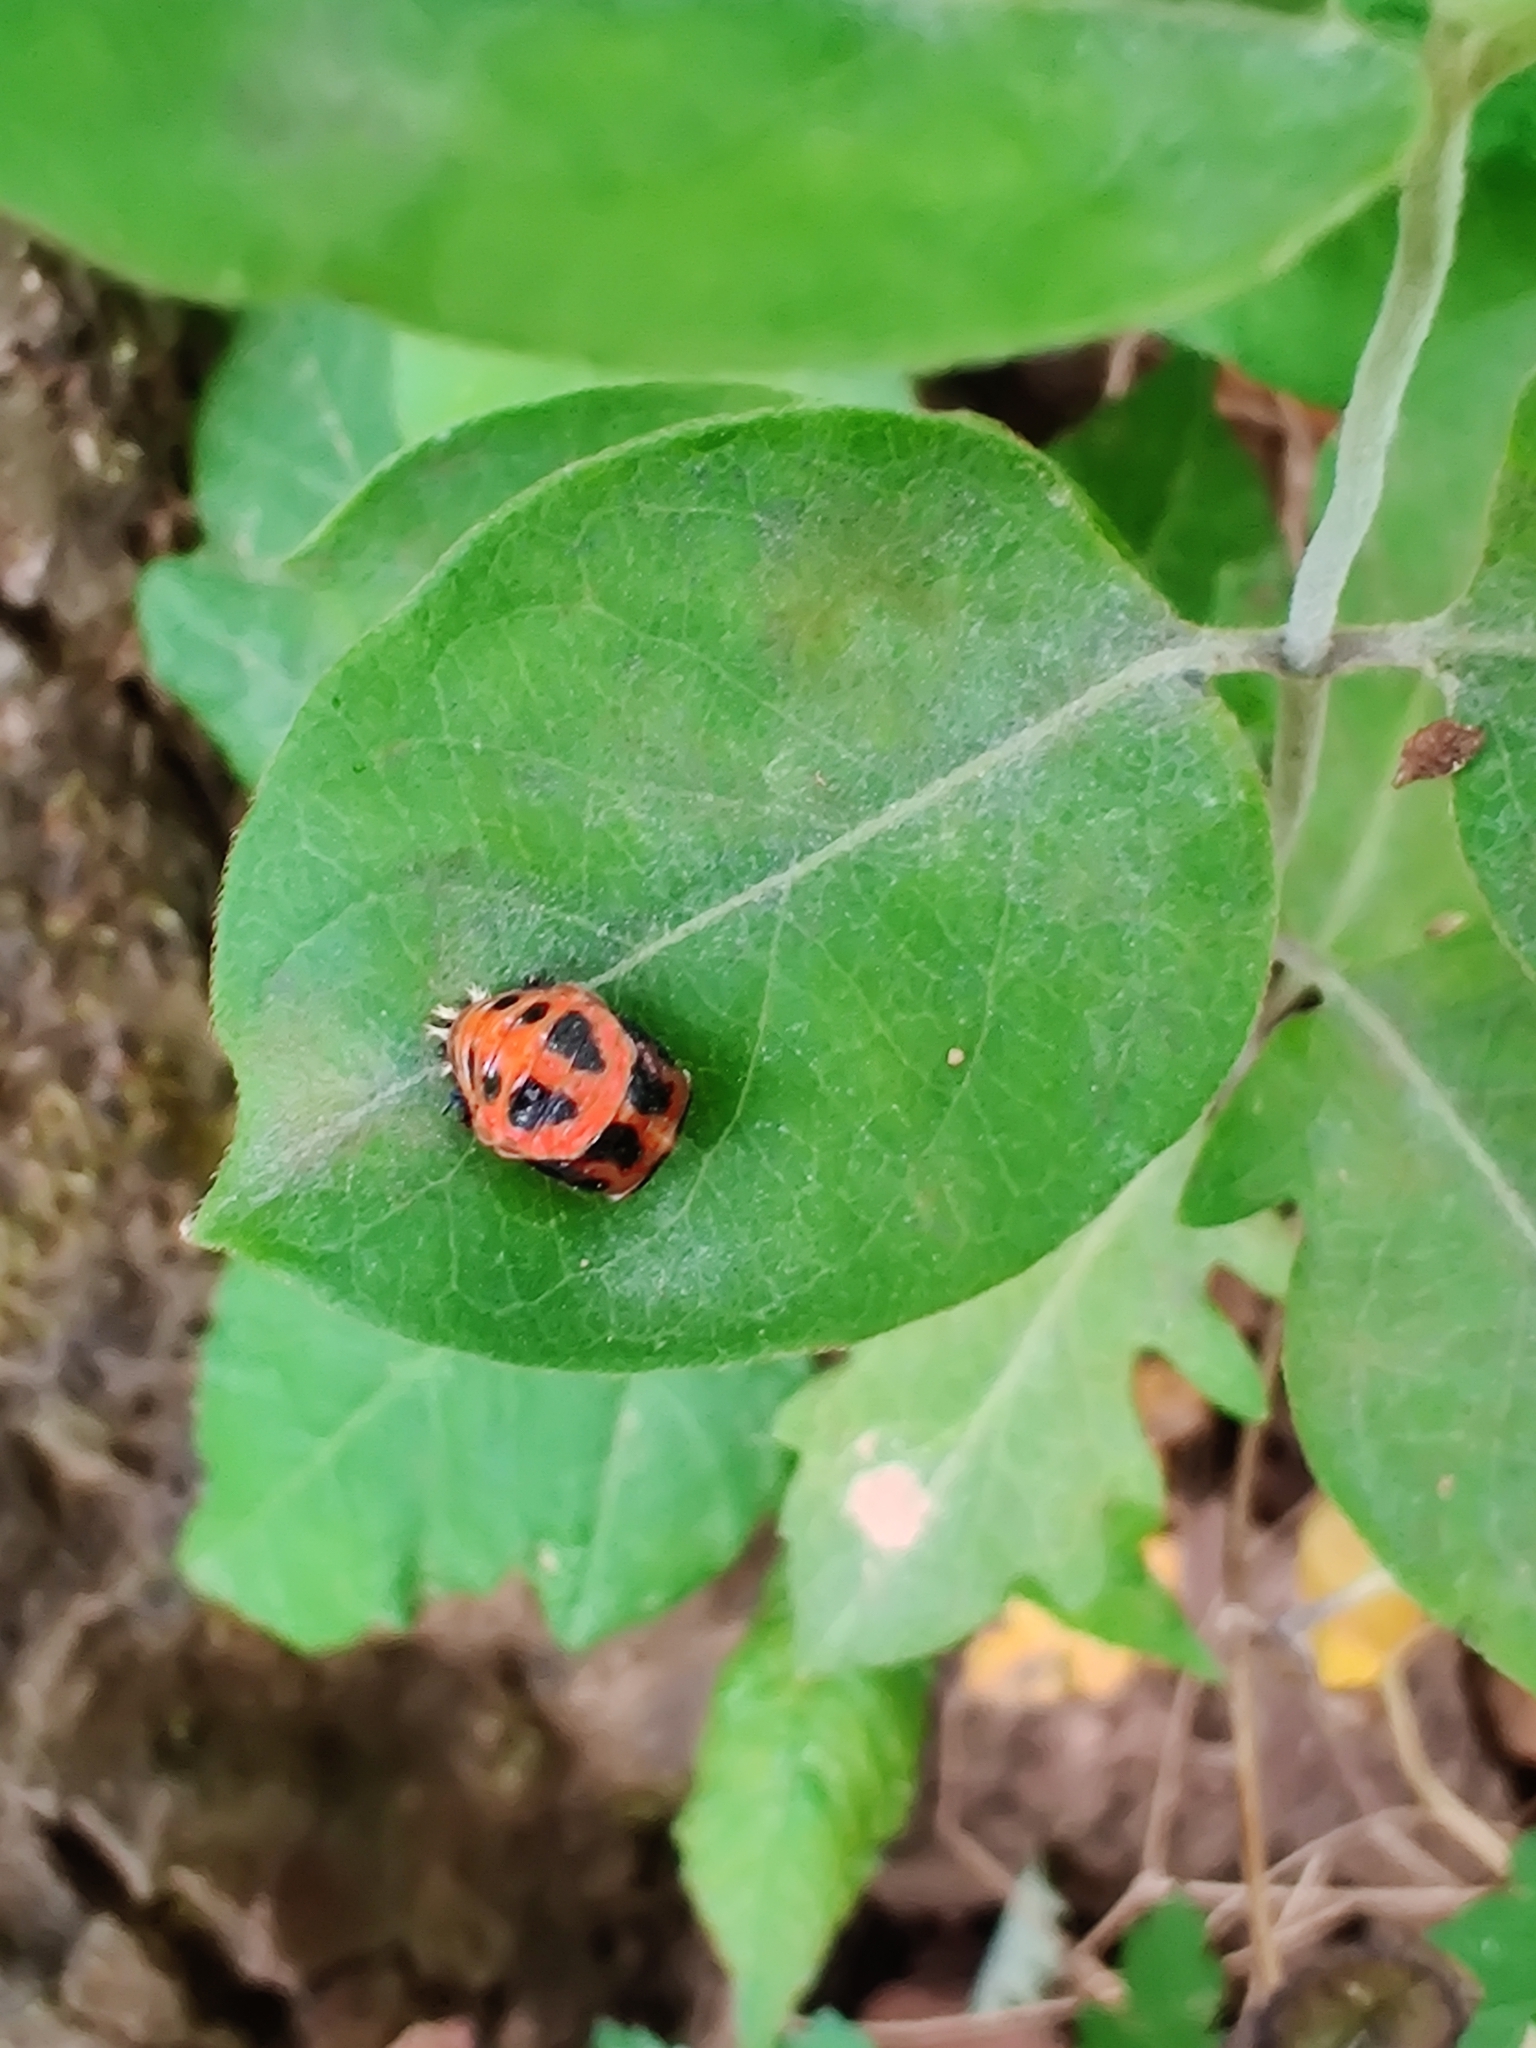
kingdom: Animalia
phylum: Arthropoda
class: Insecta
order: Coleoptera
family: Coccinellidae
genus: Harmonia
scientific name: Harmonia axyridis
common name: Harlequin ladybird
